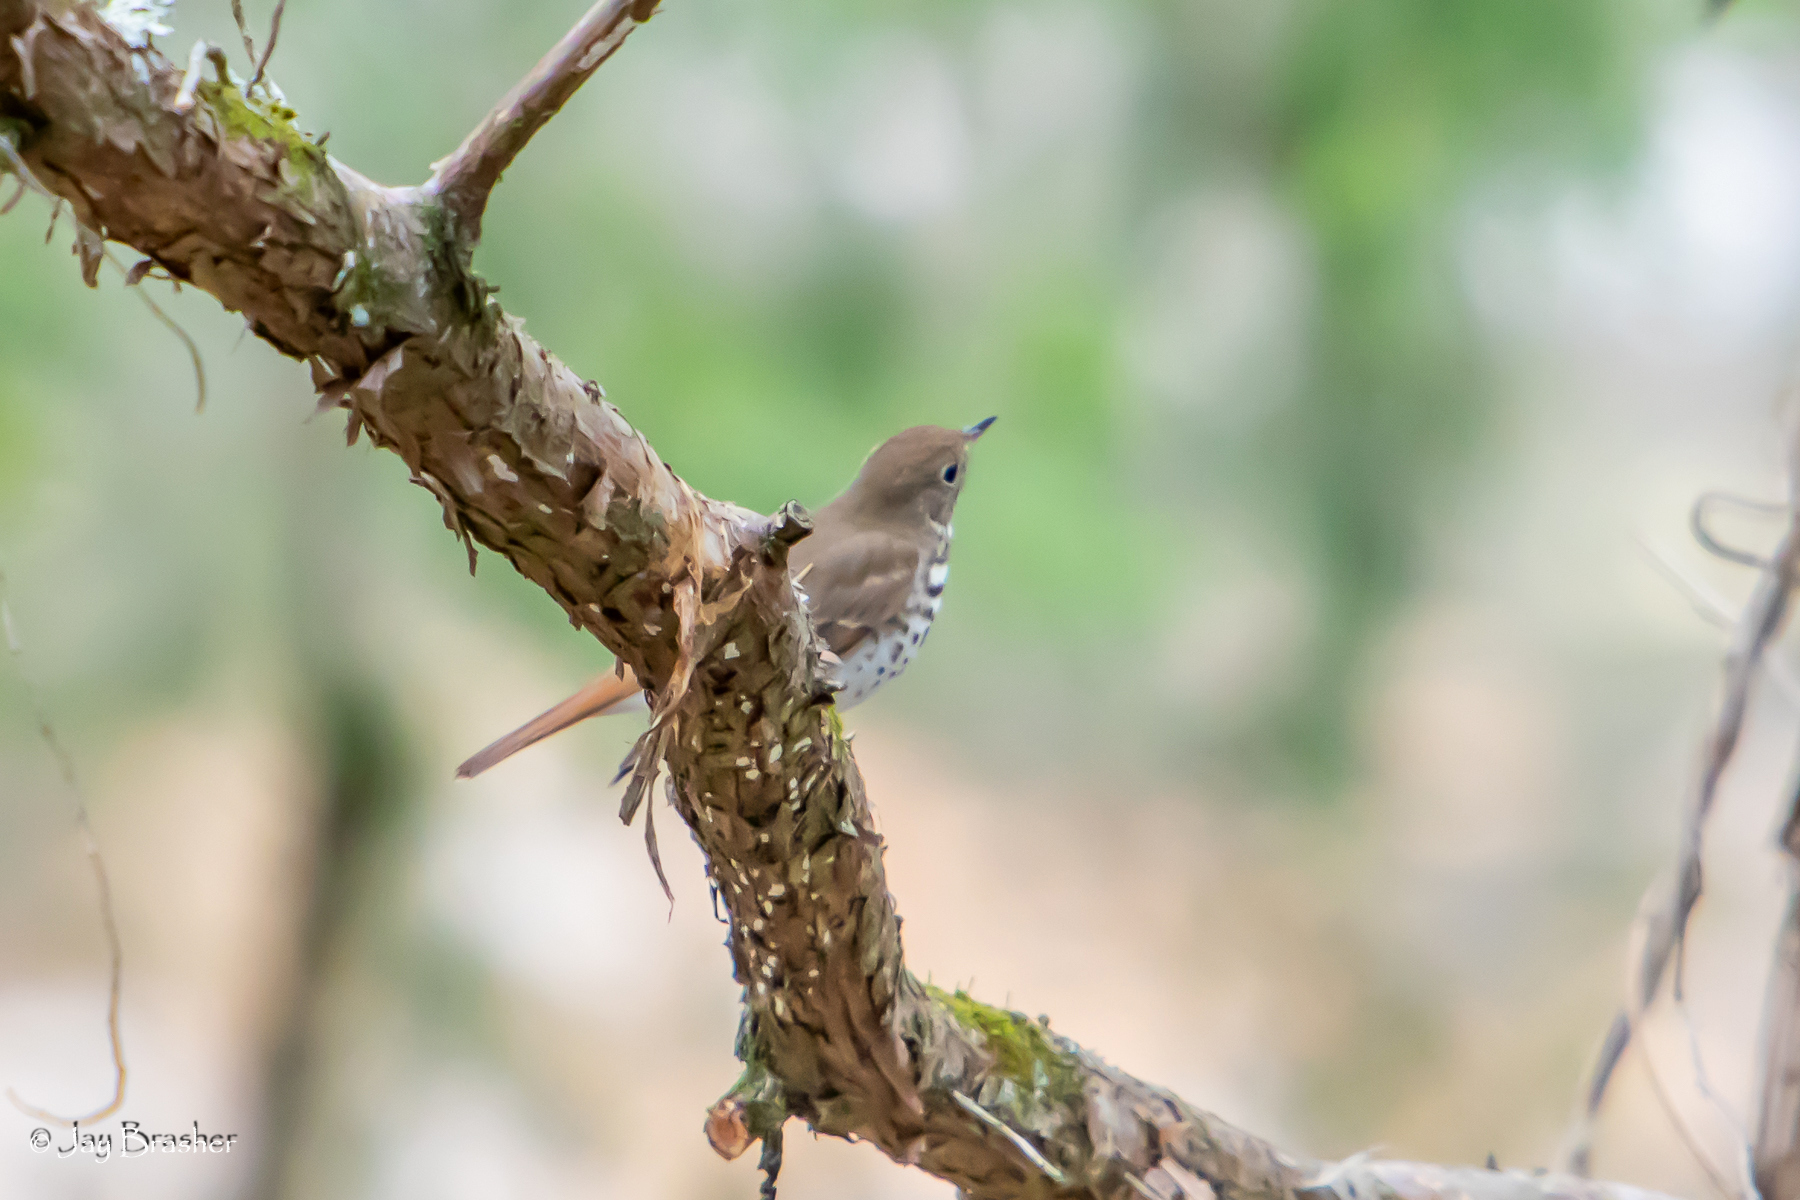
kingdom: Animalia
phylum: Chordata
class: Aves
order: Passeriformes
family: Turdidae
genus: Catharus
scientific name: Catharus guttatus
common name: Hermit thrush
